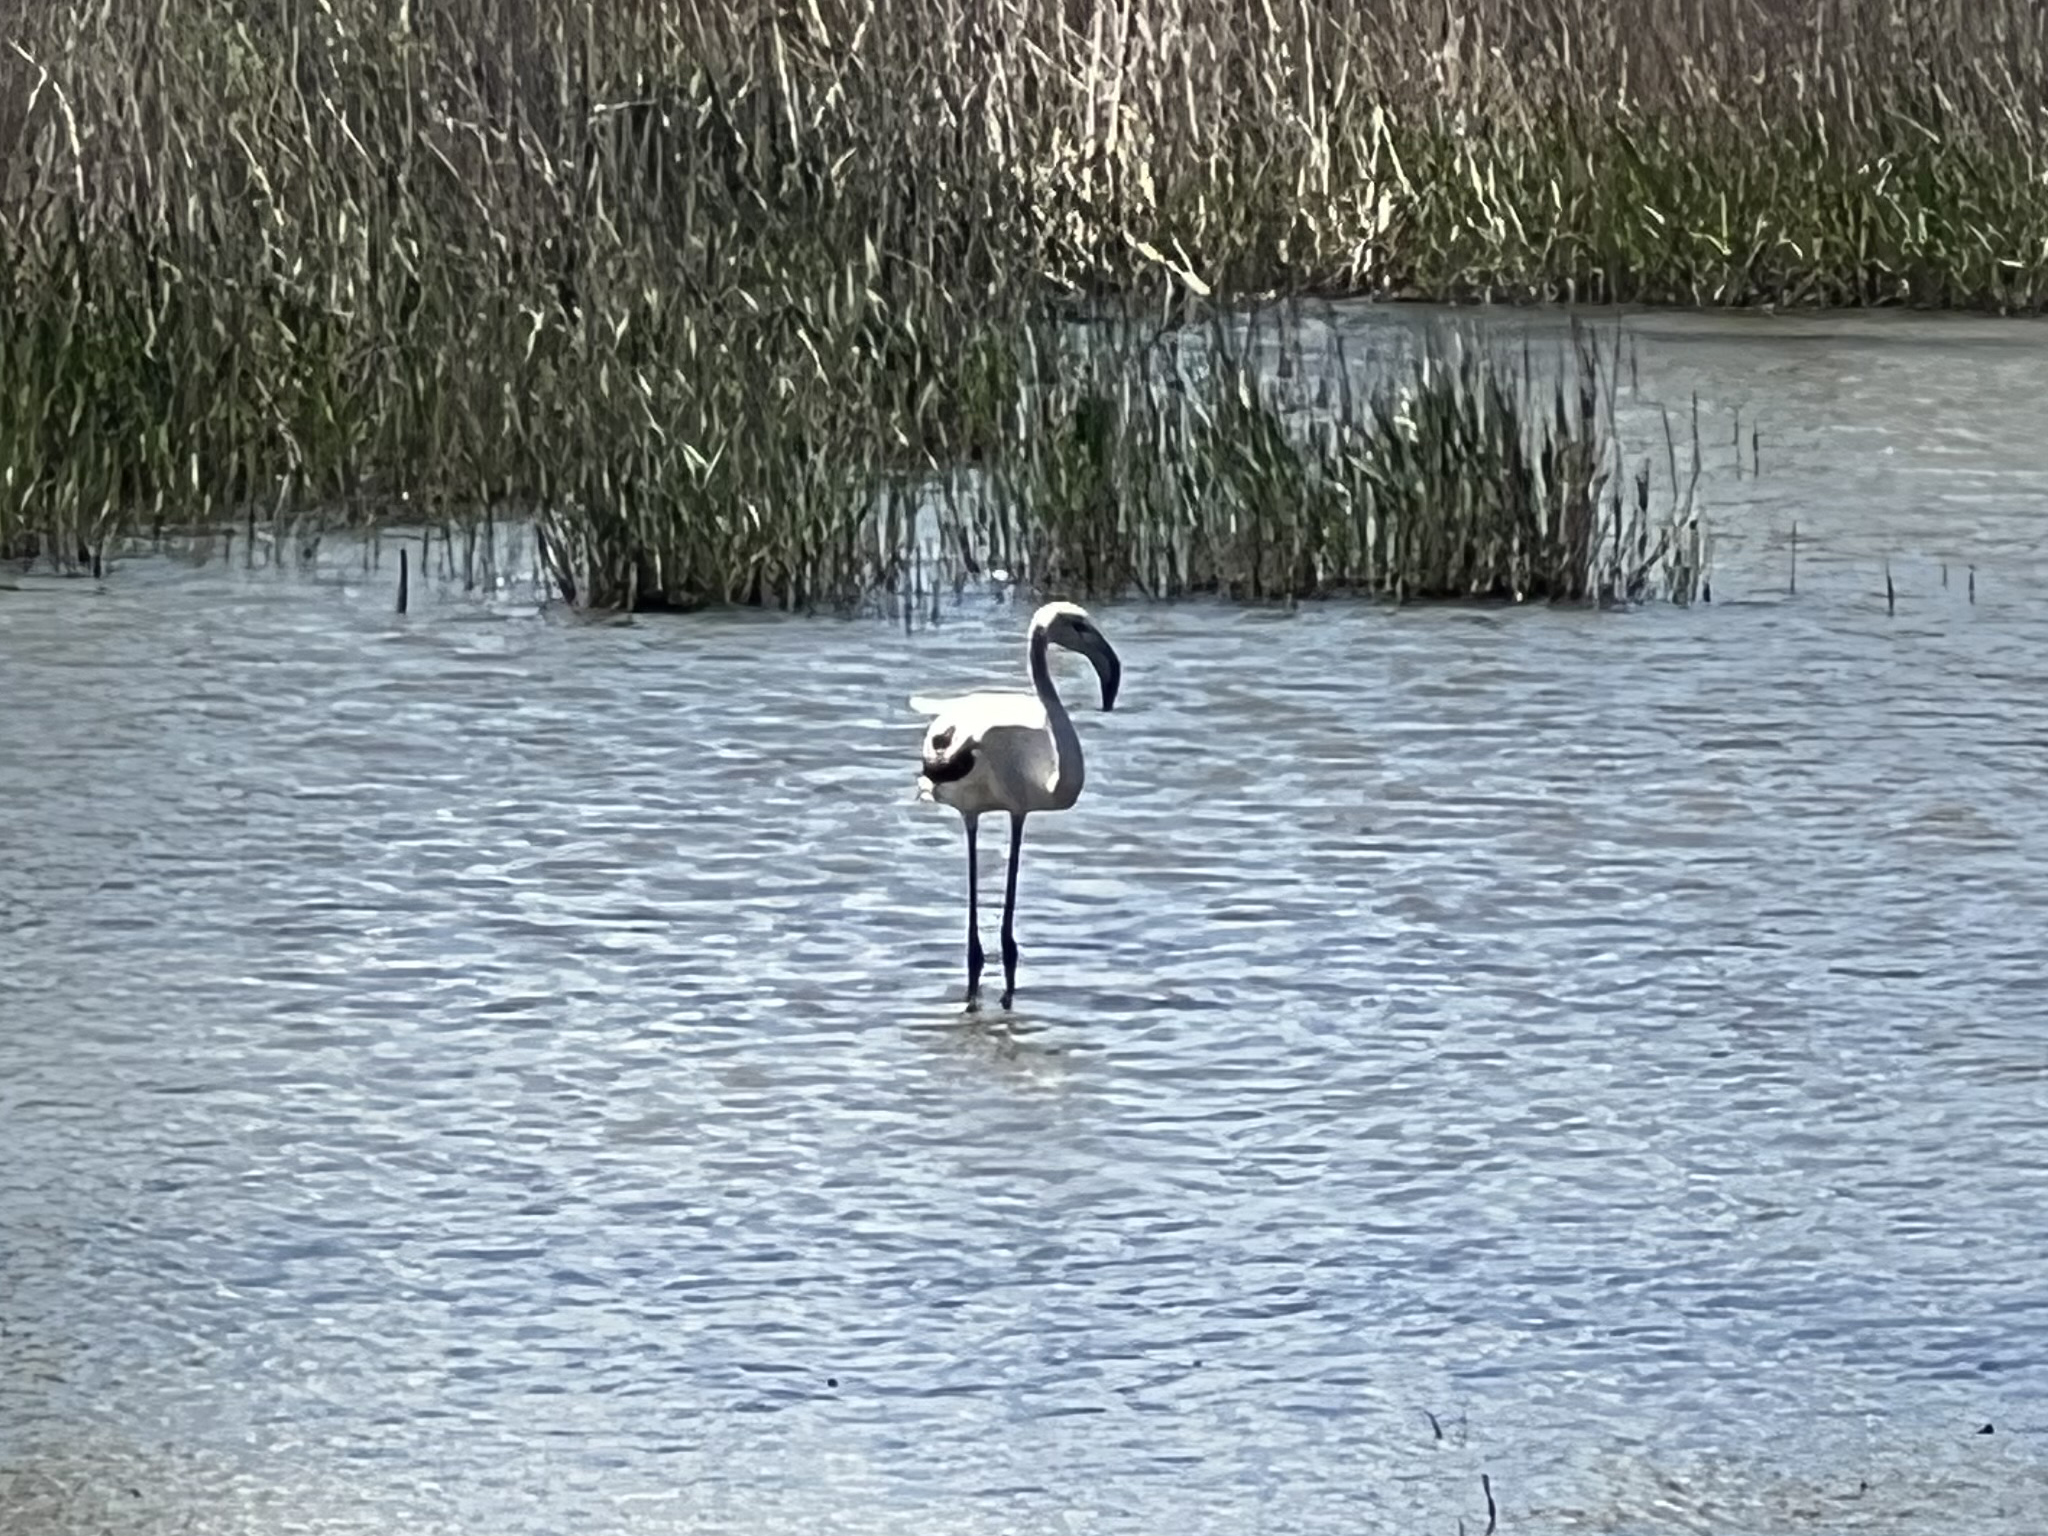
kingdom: Animalia
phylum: Chordata
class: Aves
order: Phoenicopteriformes
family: Phoenicopteridae
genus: Phoenicopterus
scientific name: Phoenicopterus roseus
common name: Greater flamingo
